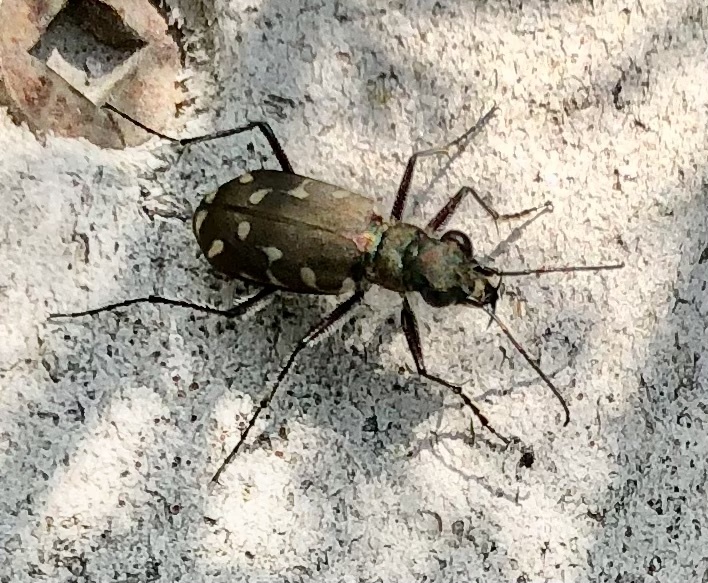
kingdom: Animalia
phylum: Arthropoda
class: Insecta
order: Coleoptera
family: Carabidae
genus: Cicindela
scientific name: Cicindela duodecimguttata
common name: Twelve-spotted tiger beetle
